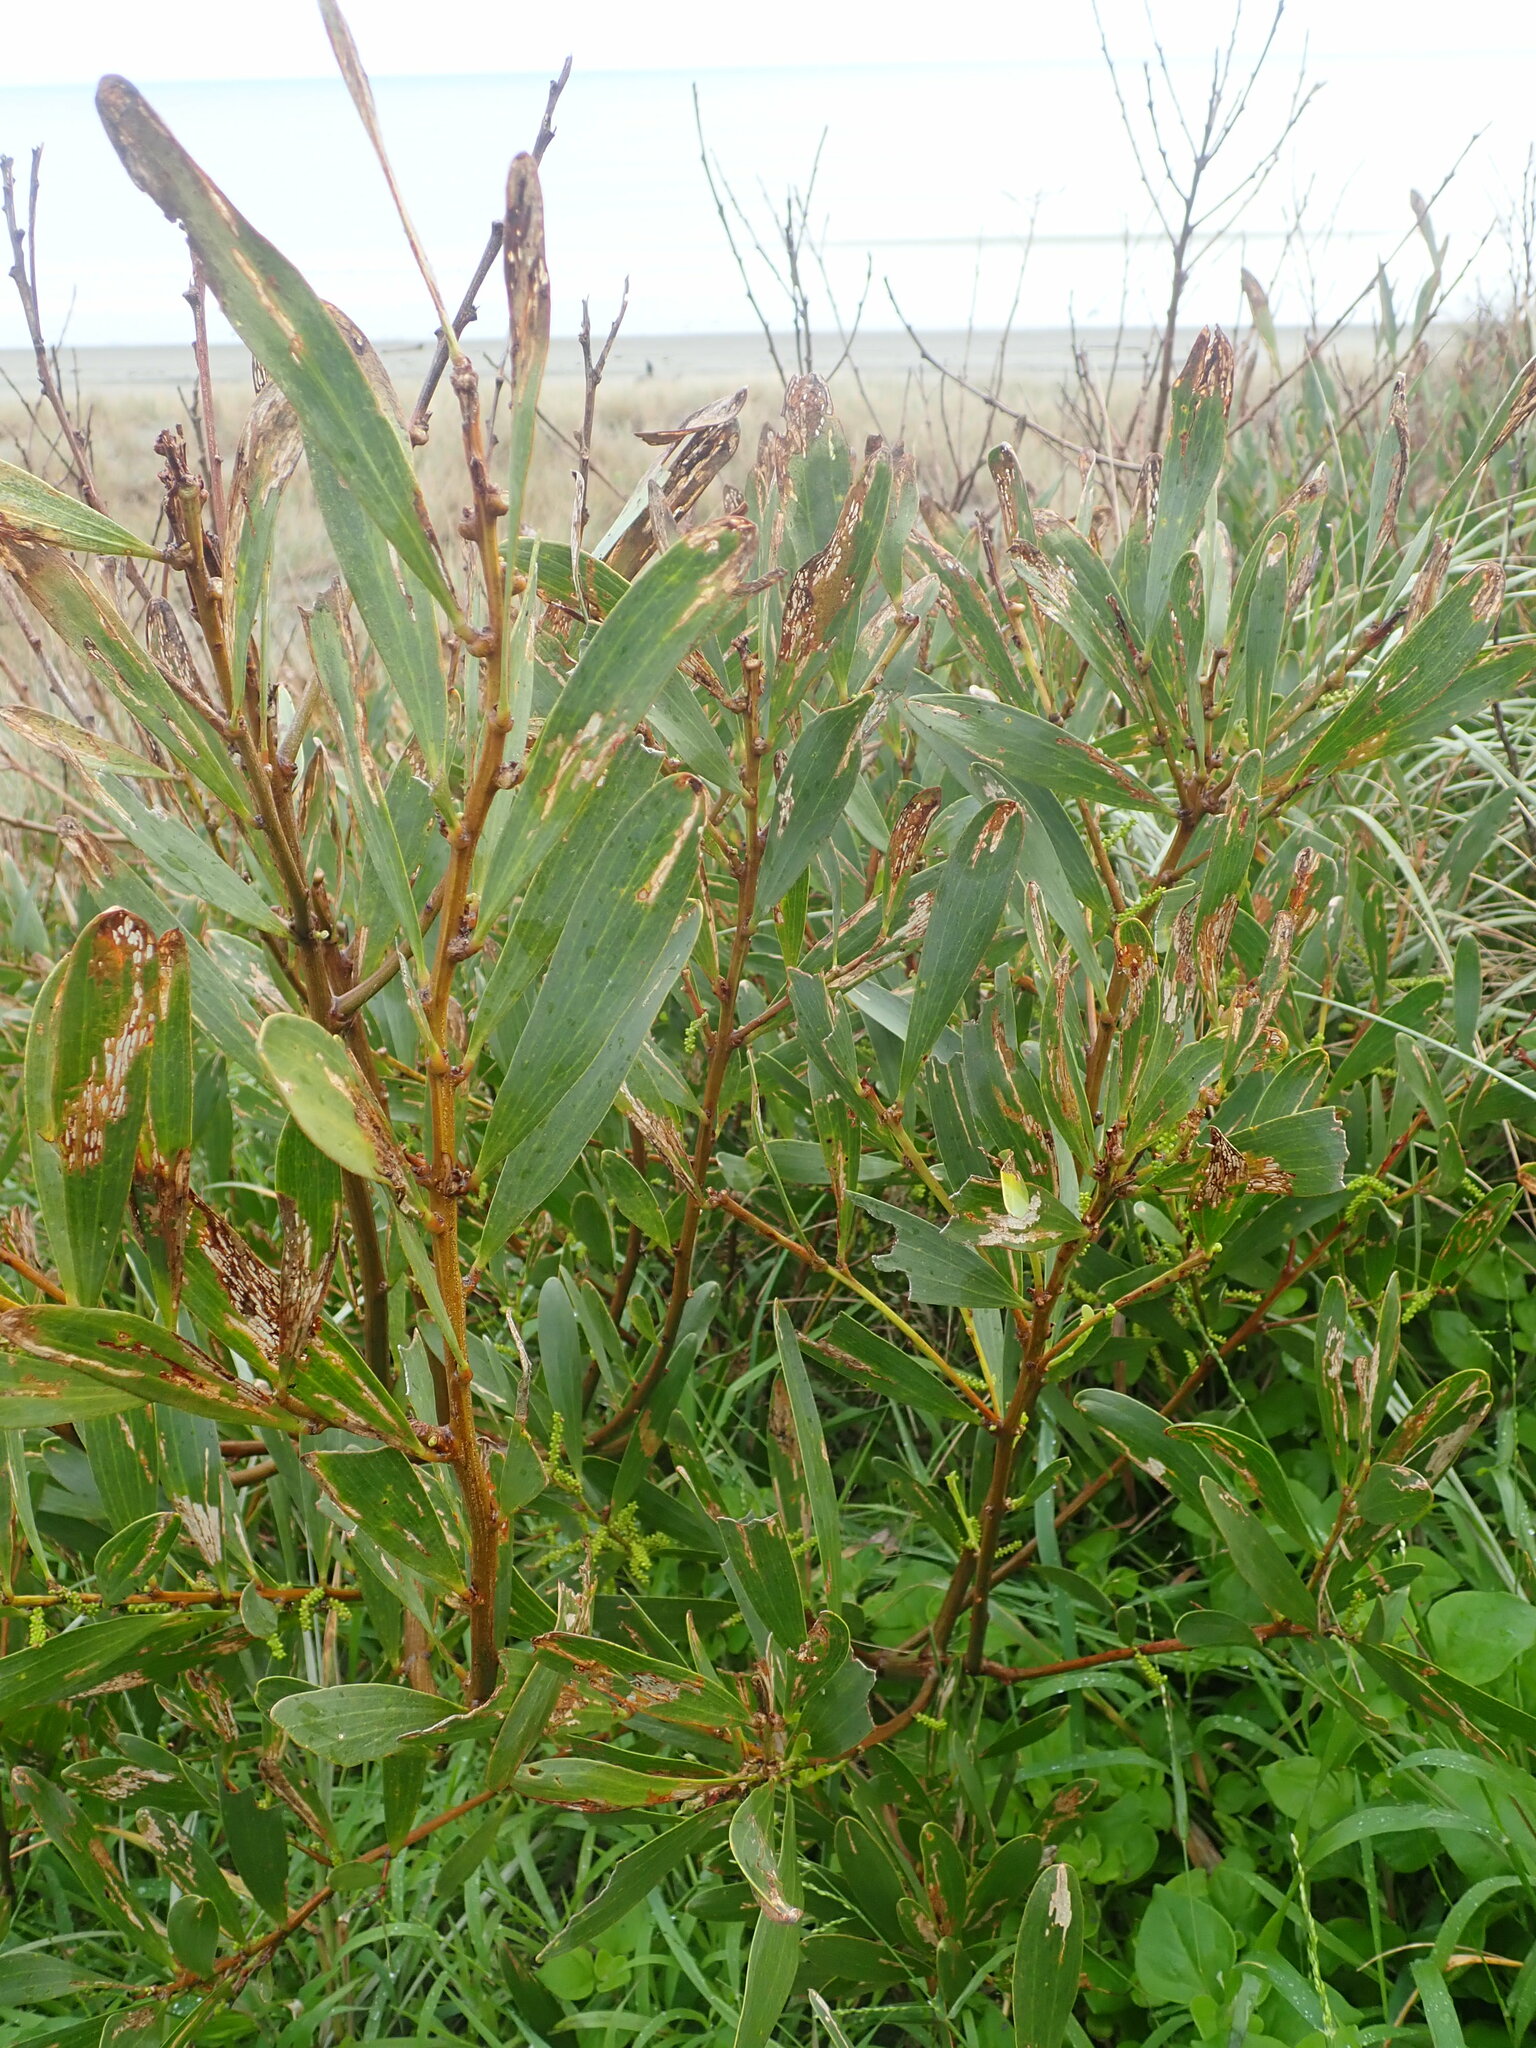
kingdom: Plantae
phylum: Tracheophyta
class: Magnoliopsida
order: Fabales
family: Fabaceae
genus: Acacia
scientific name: Acacia longifolia
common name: Sydney golden wattle
